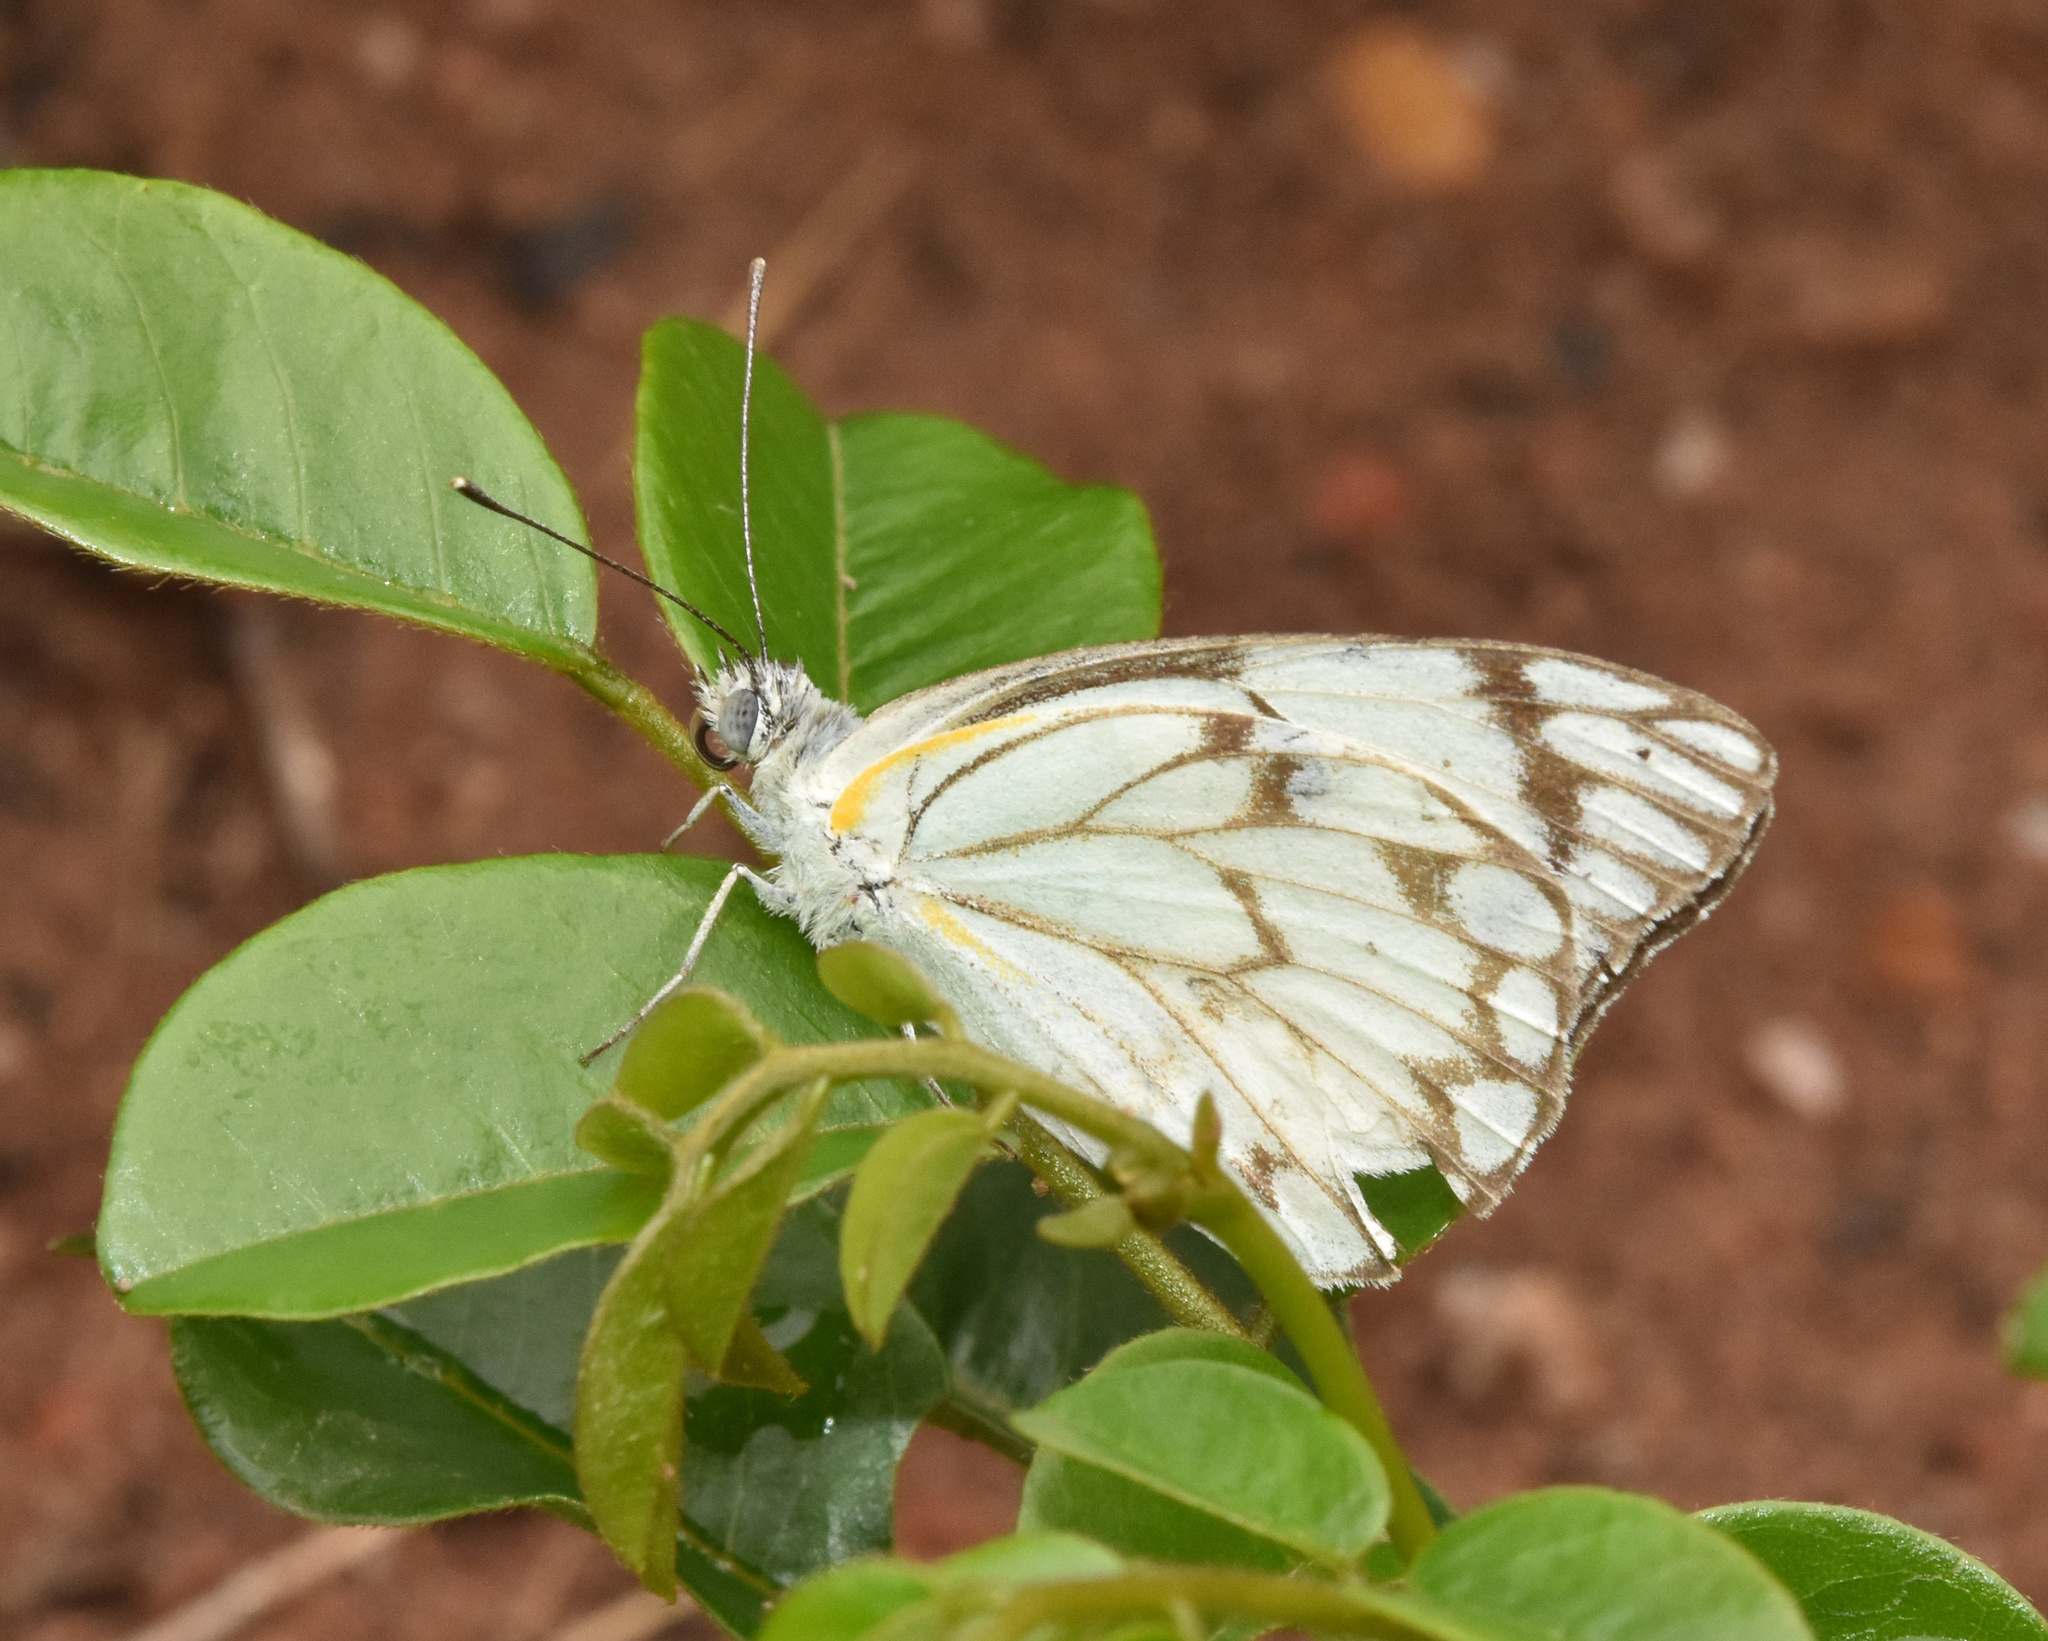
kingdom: Animalia
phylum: Arthropoda
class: Insecta
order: Lepidoptera
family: Pieridae
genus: Belenois
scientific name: Belenois aurota
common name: Brown-veined white
